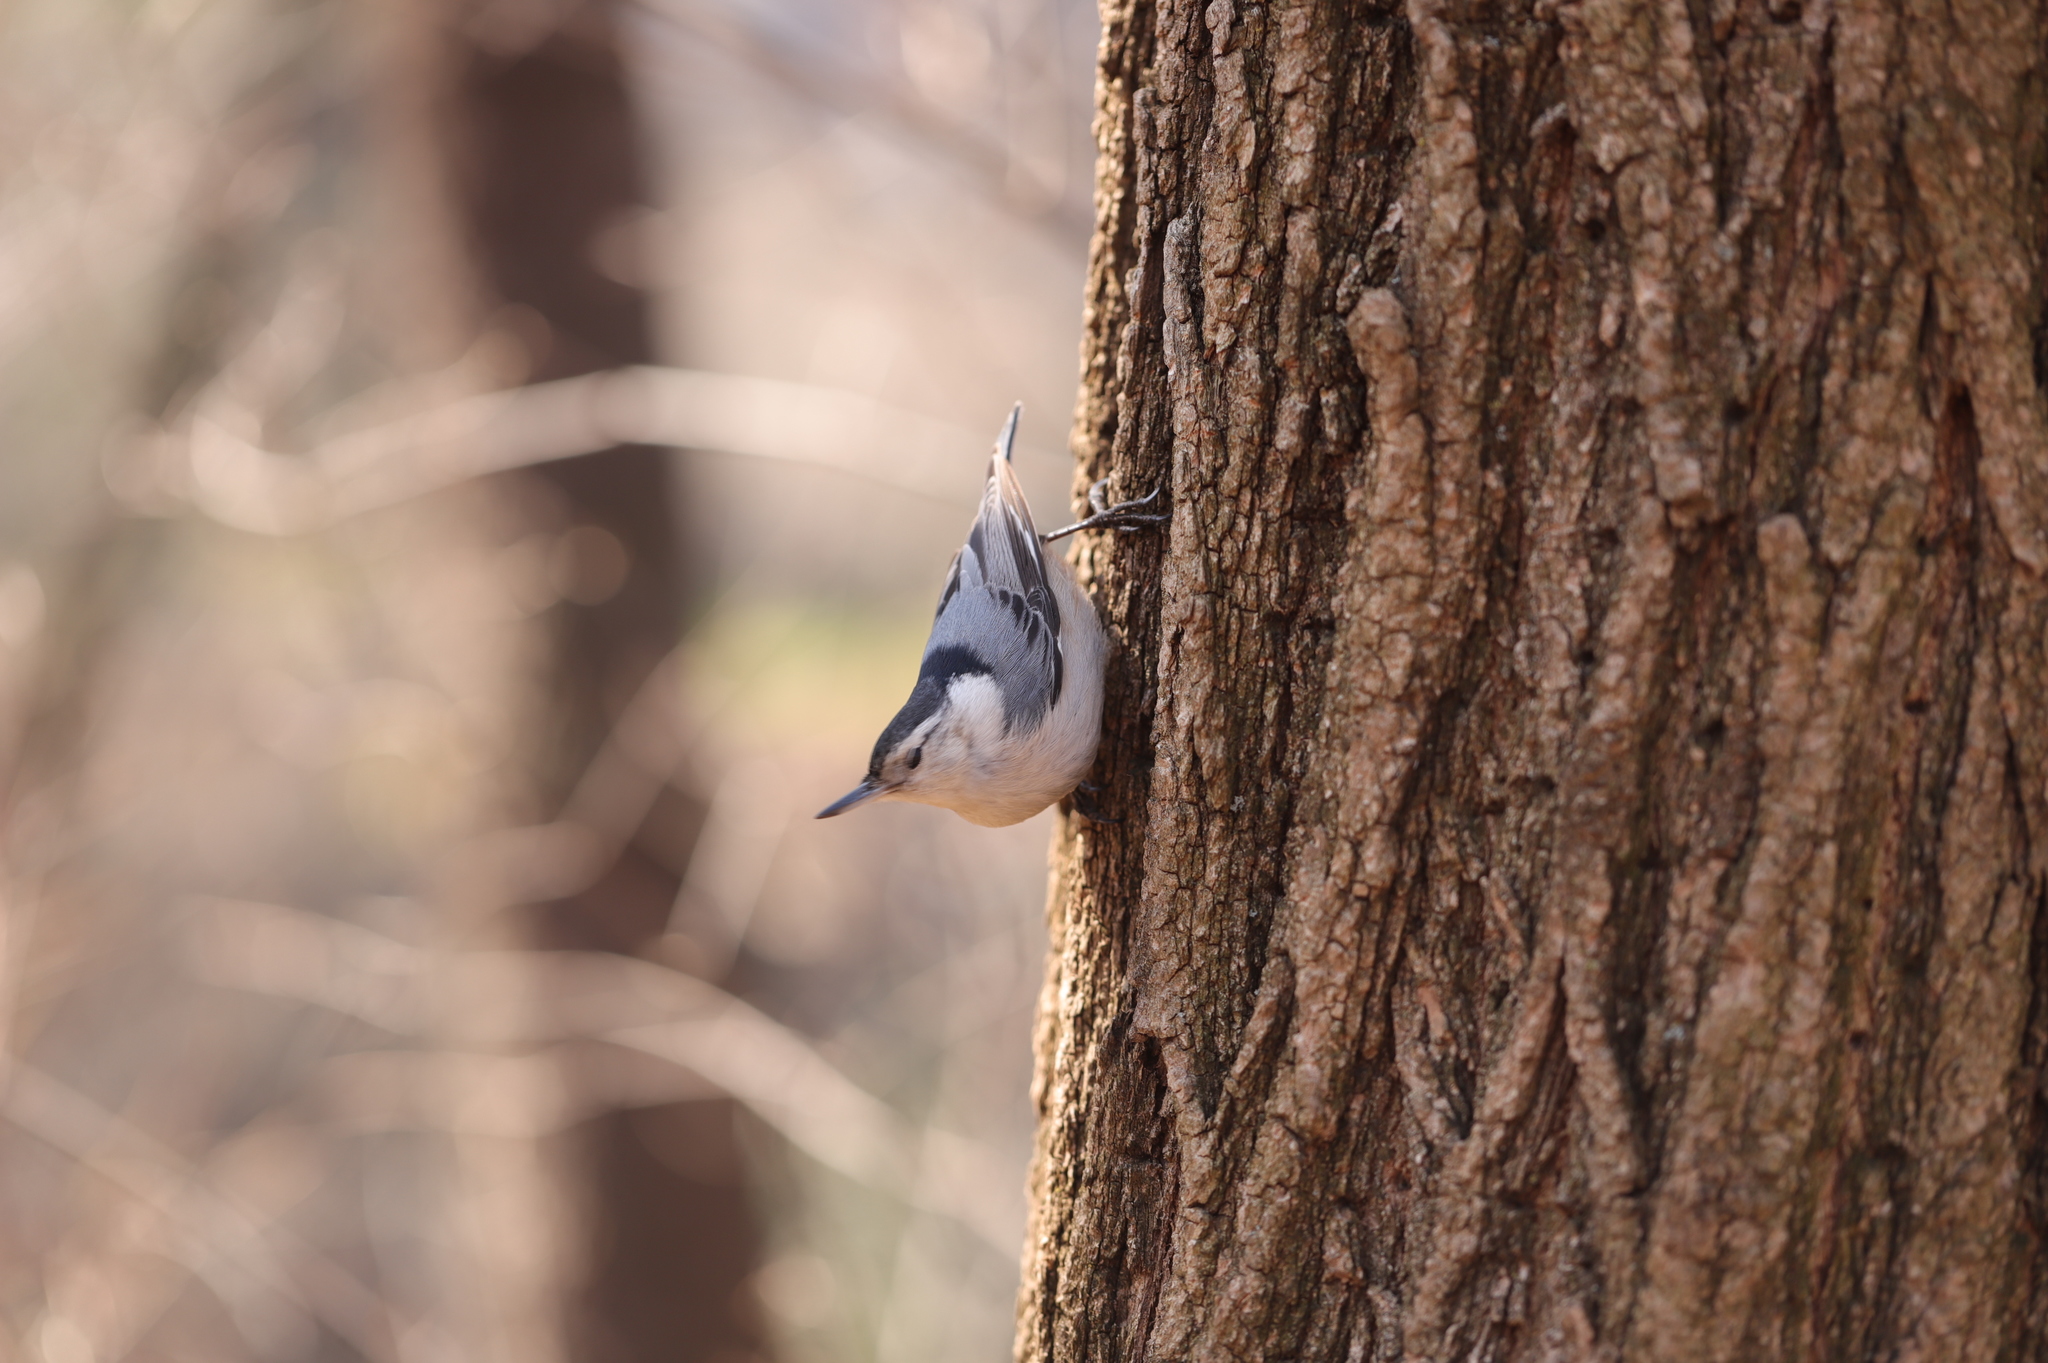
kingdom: Animalia
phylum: Chordata
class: Aves
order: Passeriformes
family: Sittidae
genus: Sitta
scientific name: Sitta carolinensis
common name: White-breasted nuthatch
